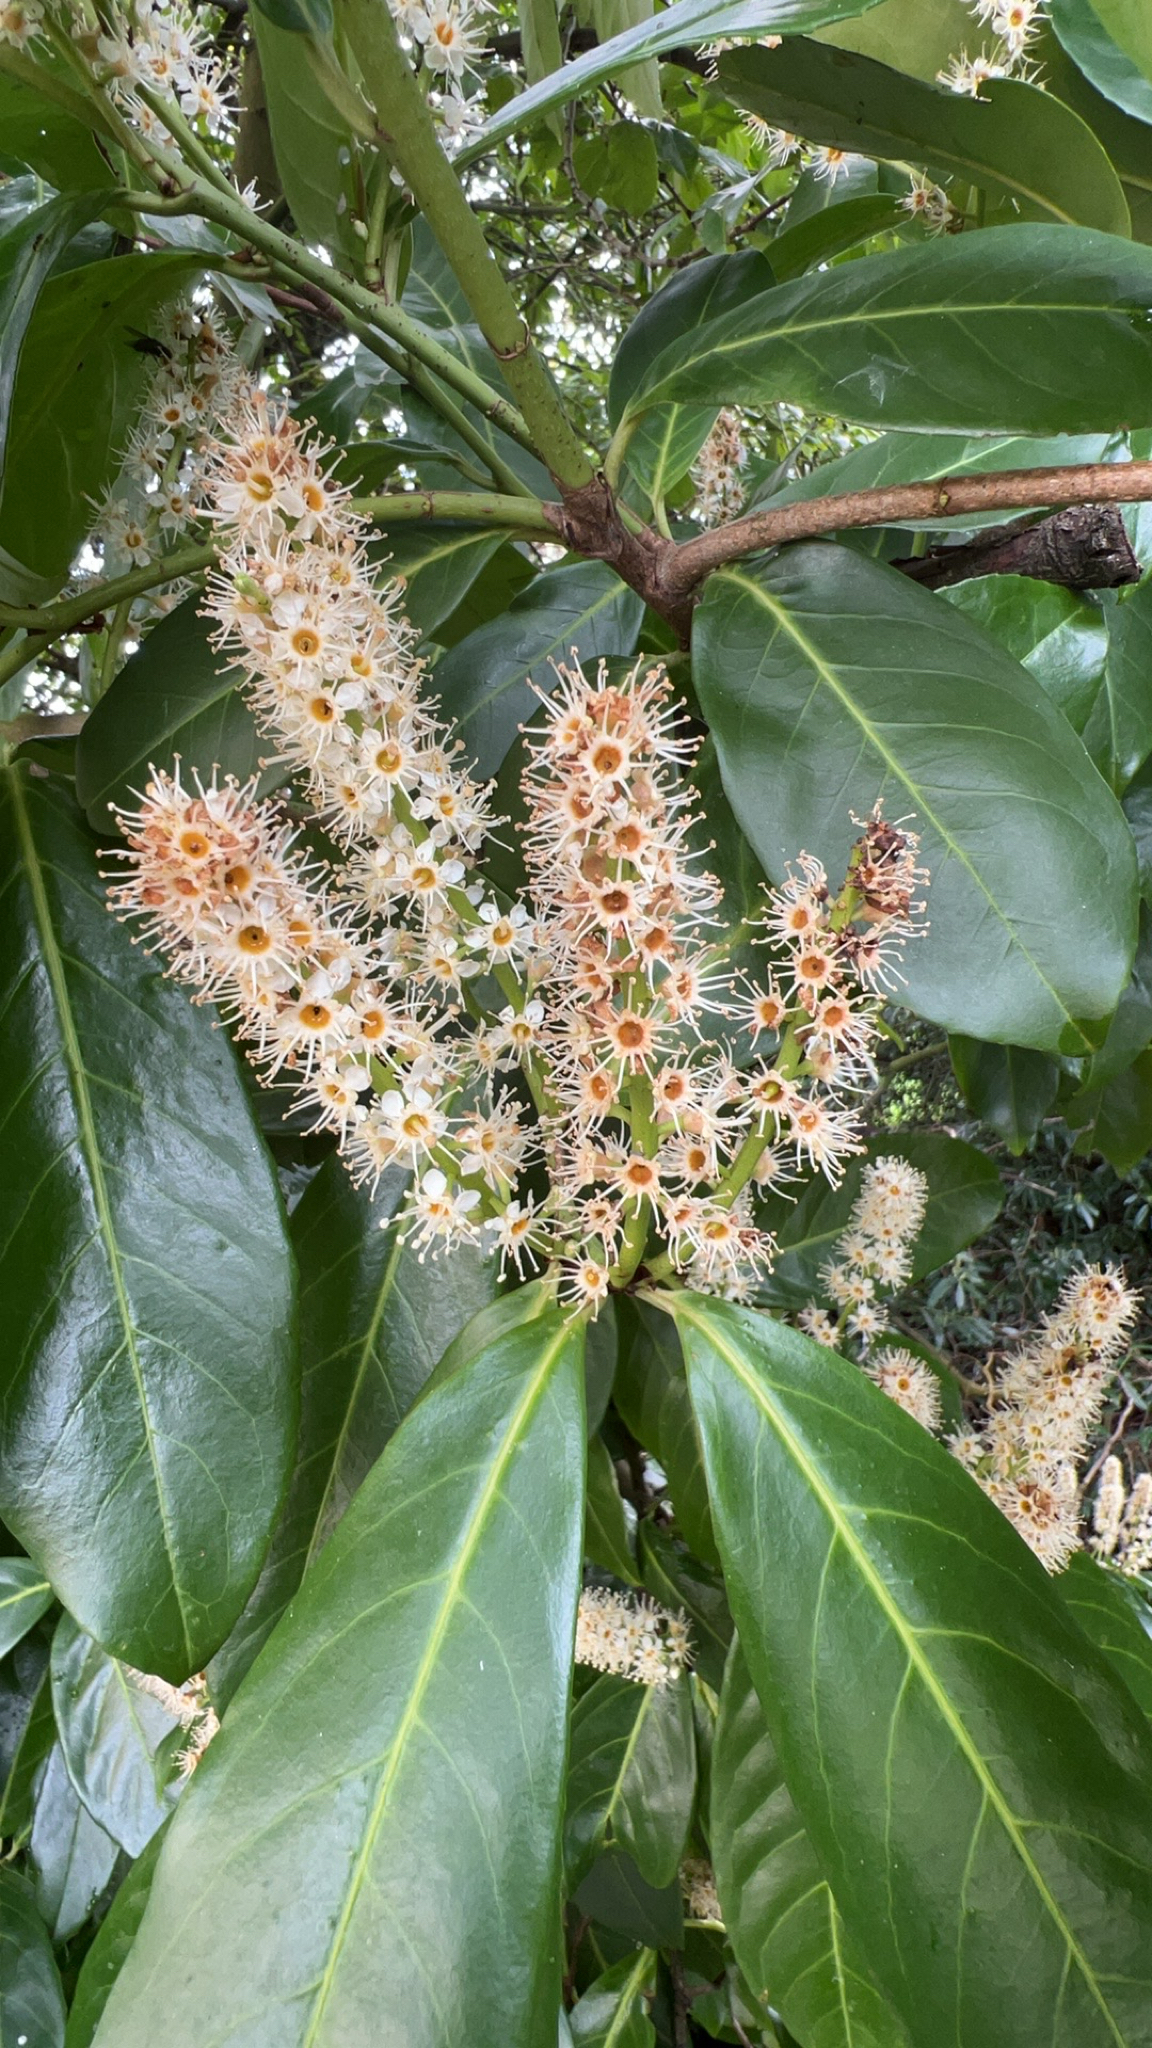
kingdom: Plantae
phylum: Tracheophyta
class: Magnoliopsida
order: Rosales
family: Rosaceae
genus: Prunus
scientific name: Prunus laurocerasus
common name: Cherry laurel
